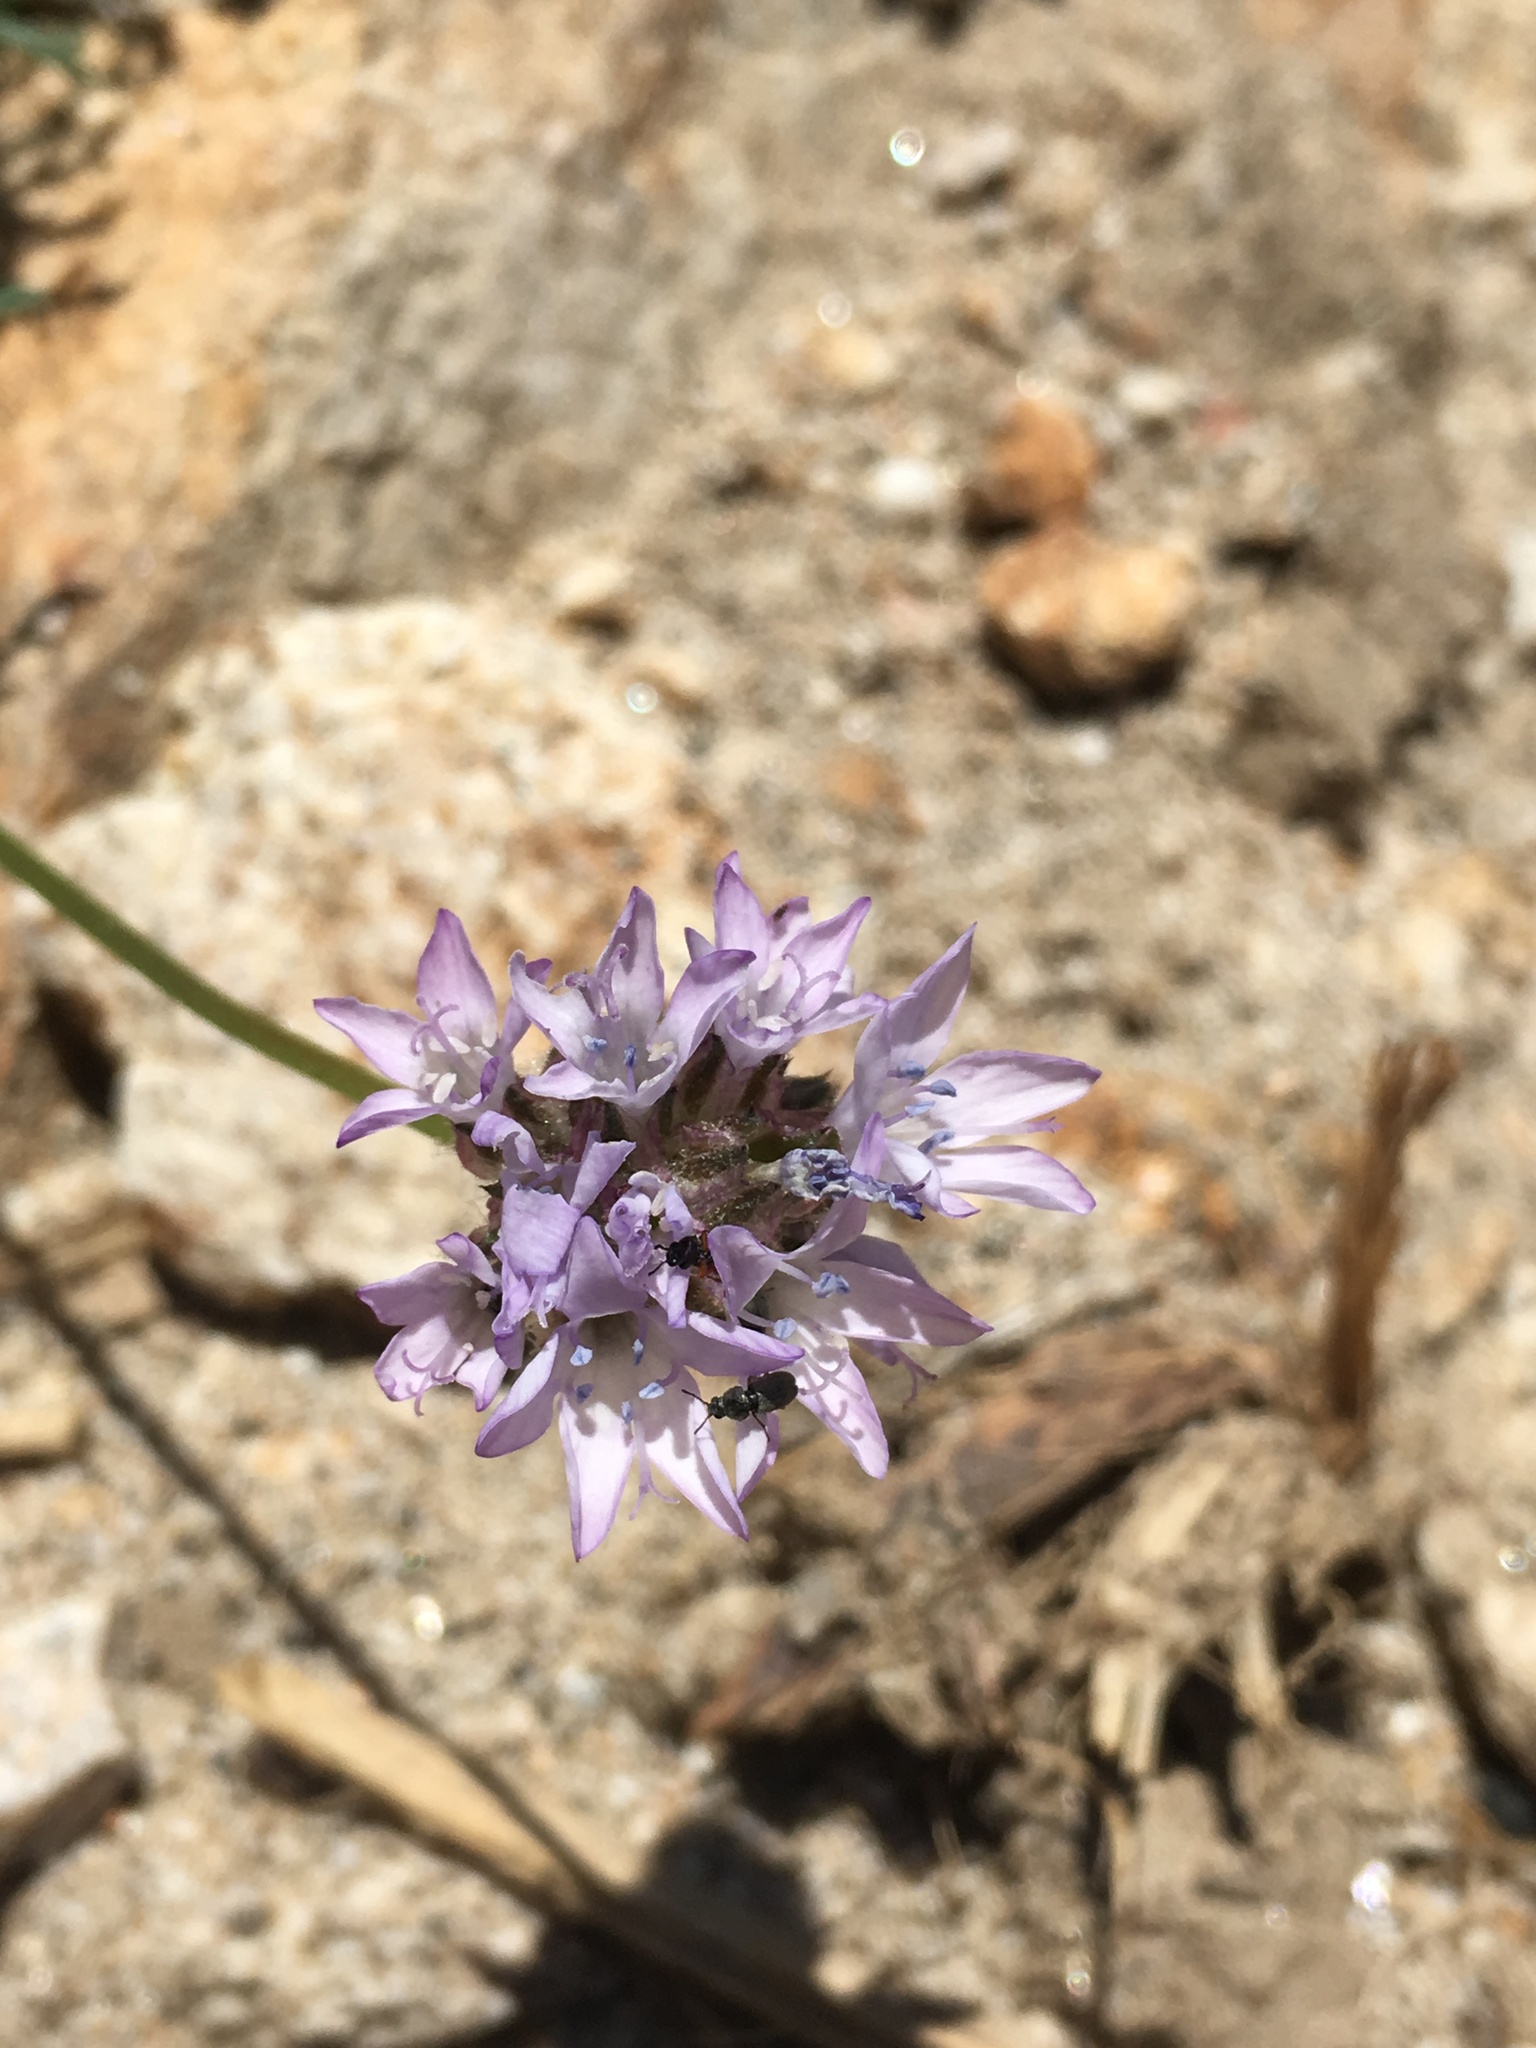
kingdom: Plantae
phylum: Tracheophyta
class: Magnoliopsida
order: Ericales
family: Polemoniaceae
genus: Gilia
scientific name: Gilia capitata
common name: Bluehead gilia
